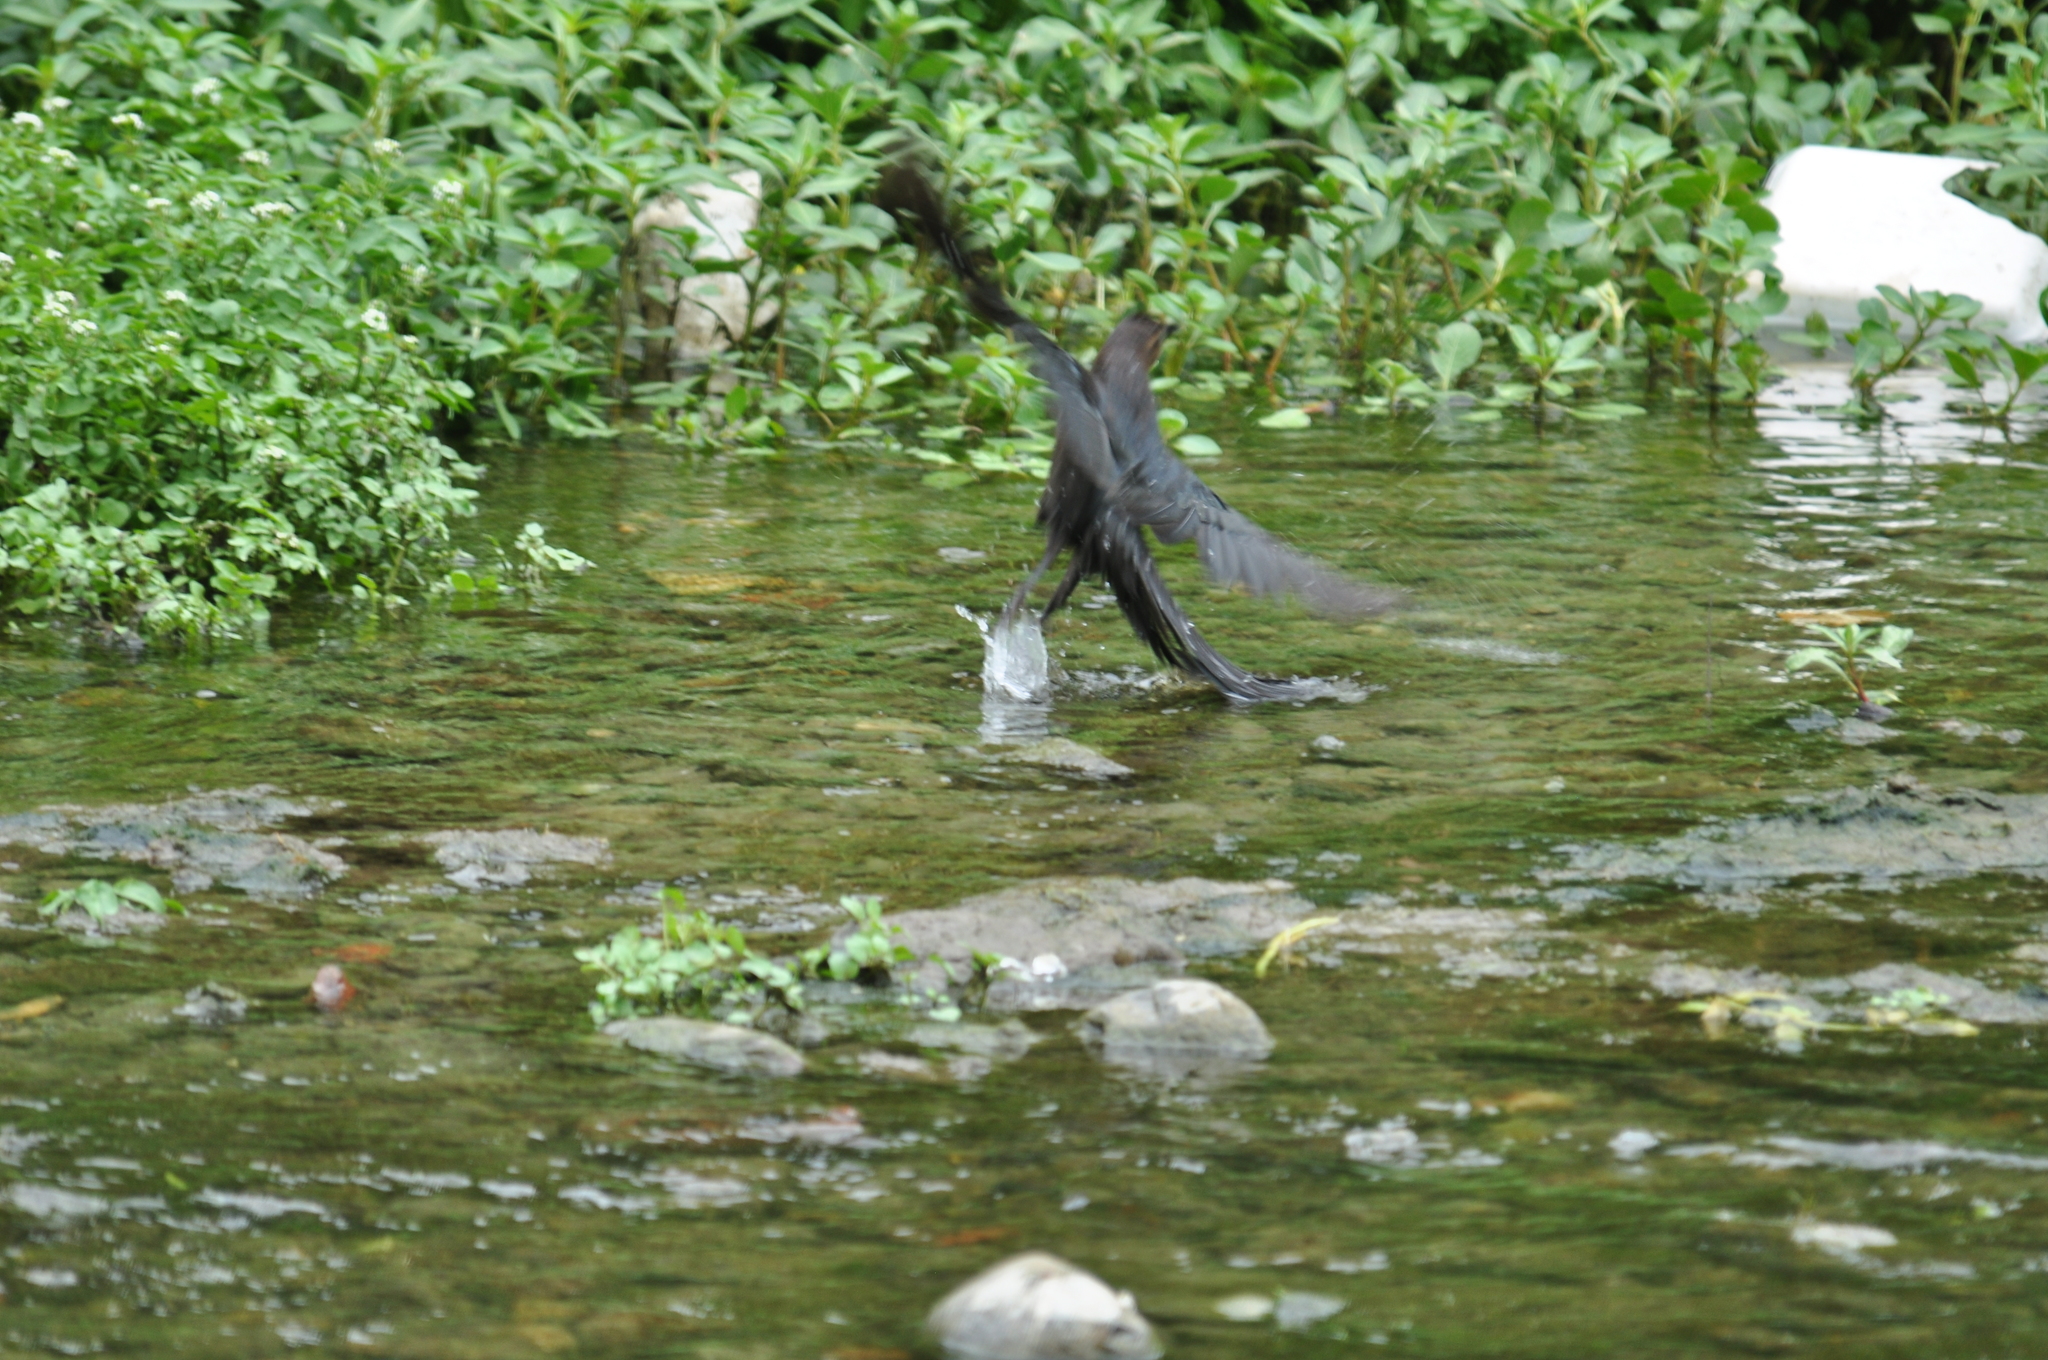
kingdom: Animalia
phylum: Chordata
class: Aves
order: Passeriformes
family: Icteridae
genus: Quiscalus
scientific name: Quiscalus mexicanus
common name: Great-tailed grackle
